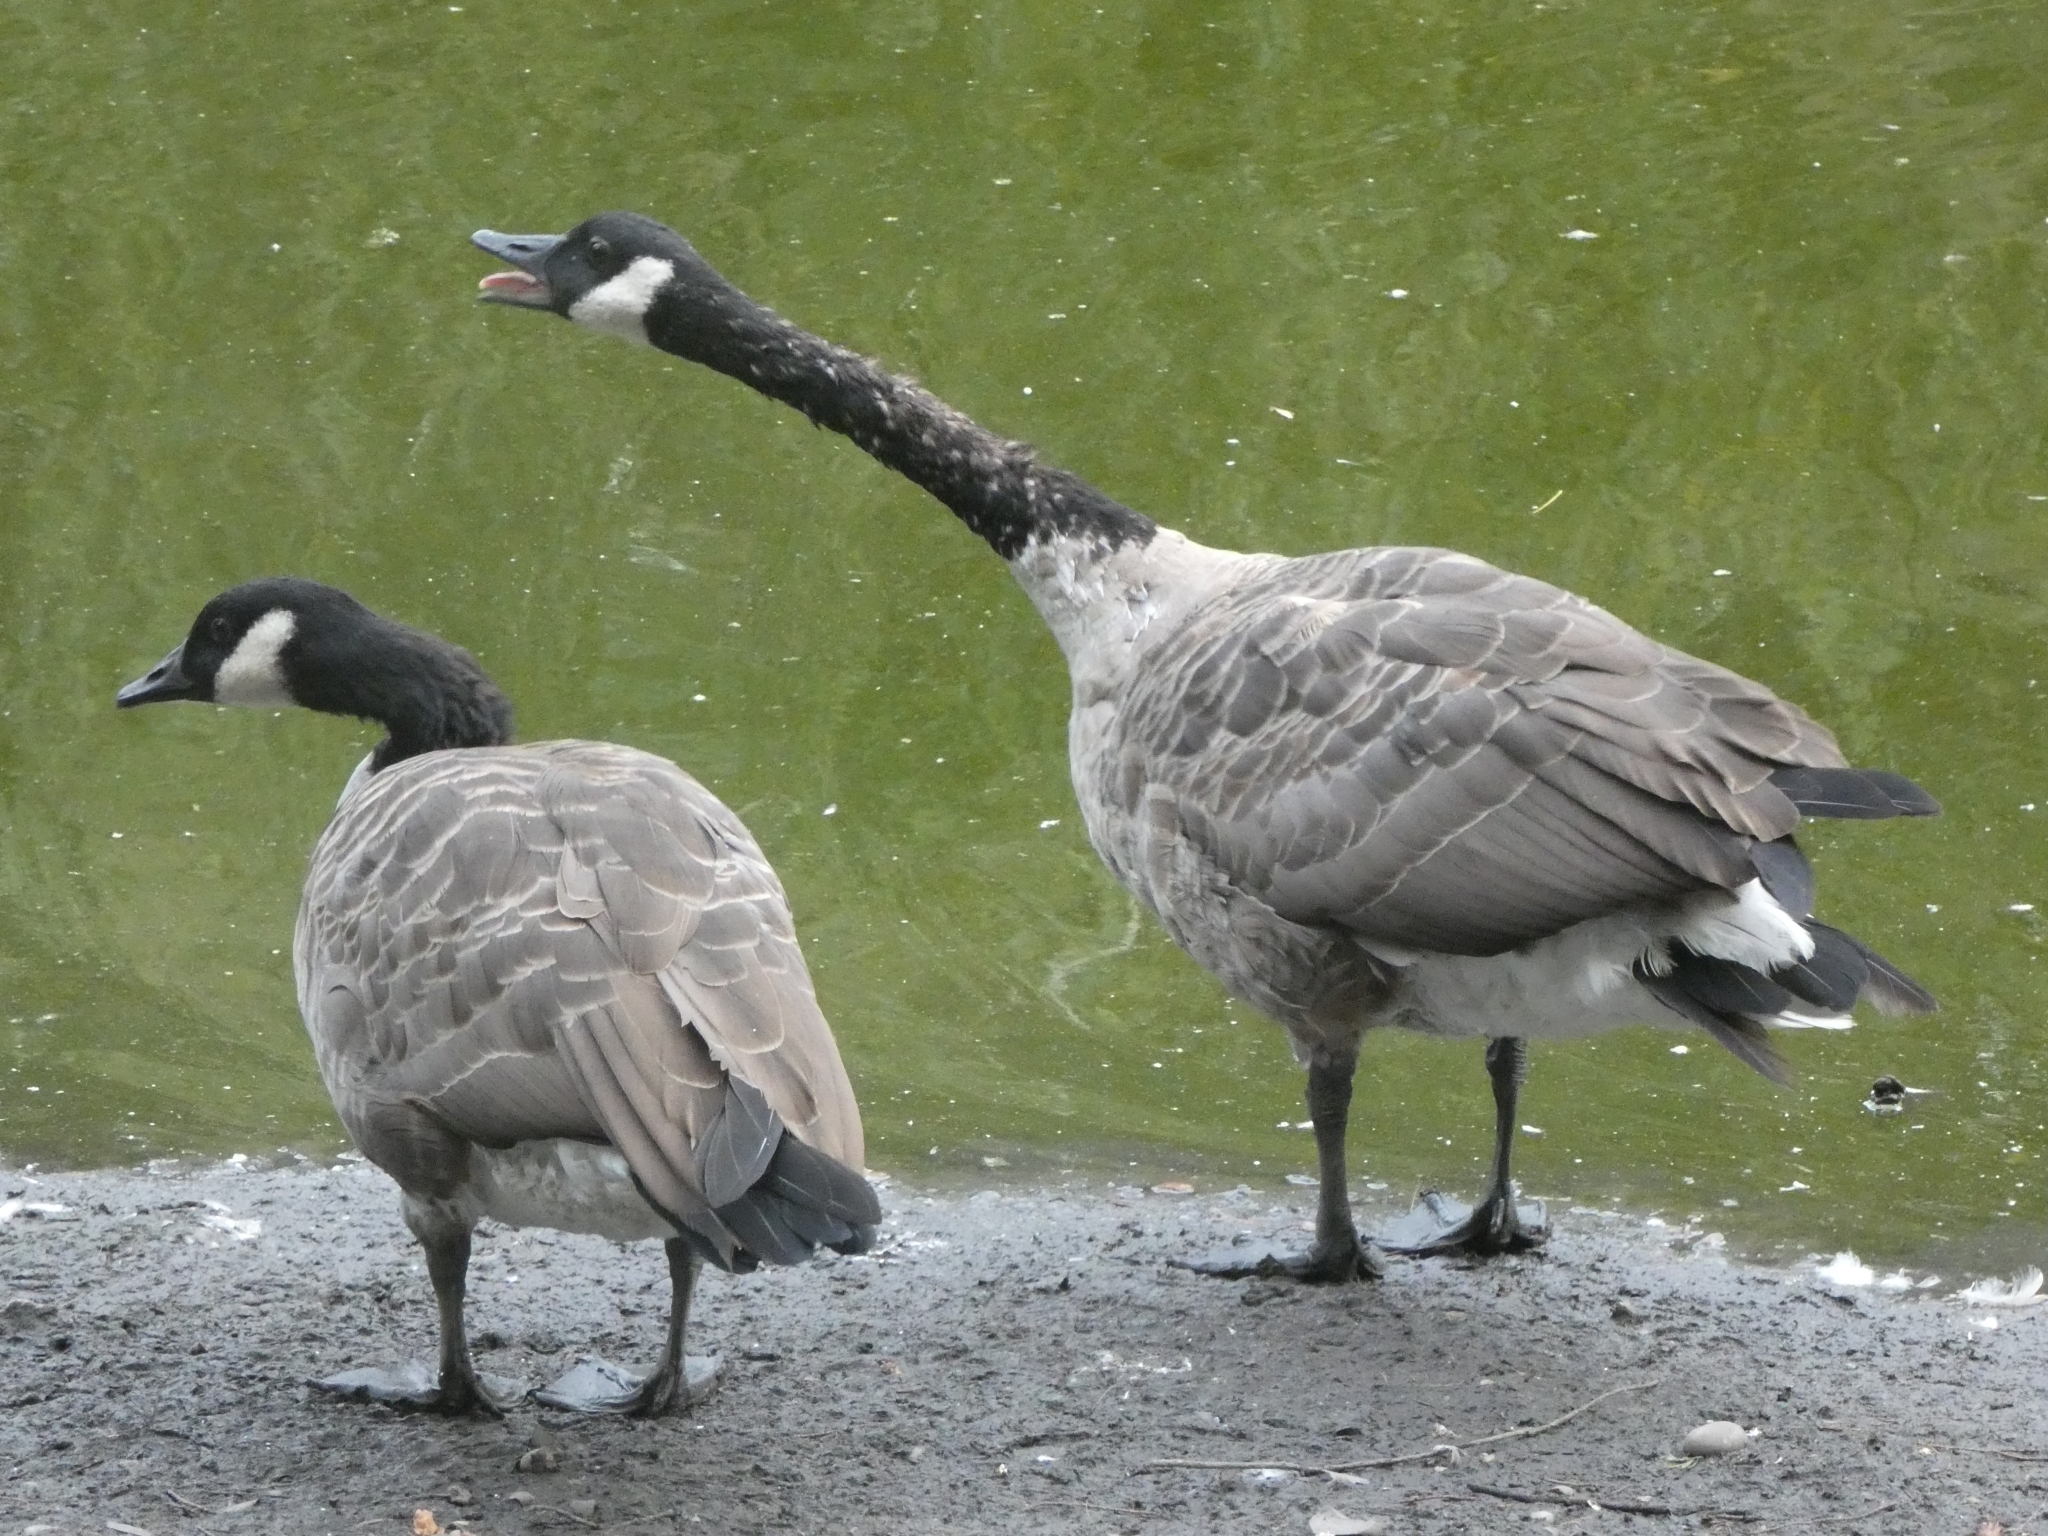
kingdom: Animalia
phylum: Chordata
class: Aves
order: Anseriformes
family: Anatidae
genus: Branta
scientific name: Branta canadensis
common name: Canada goose
